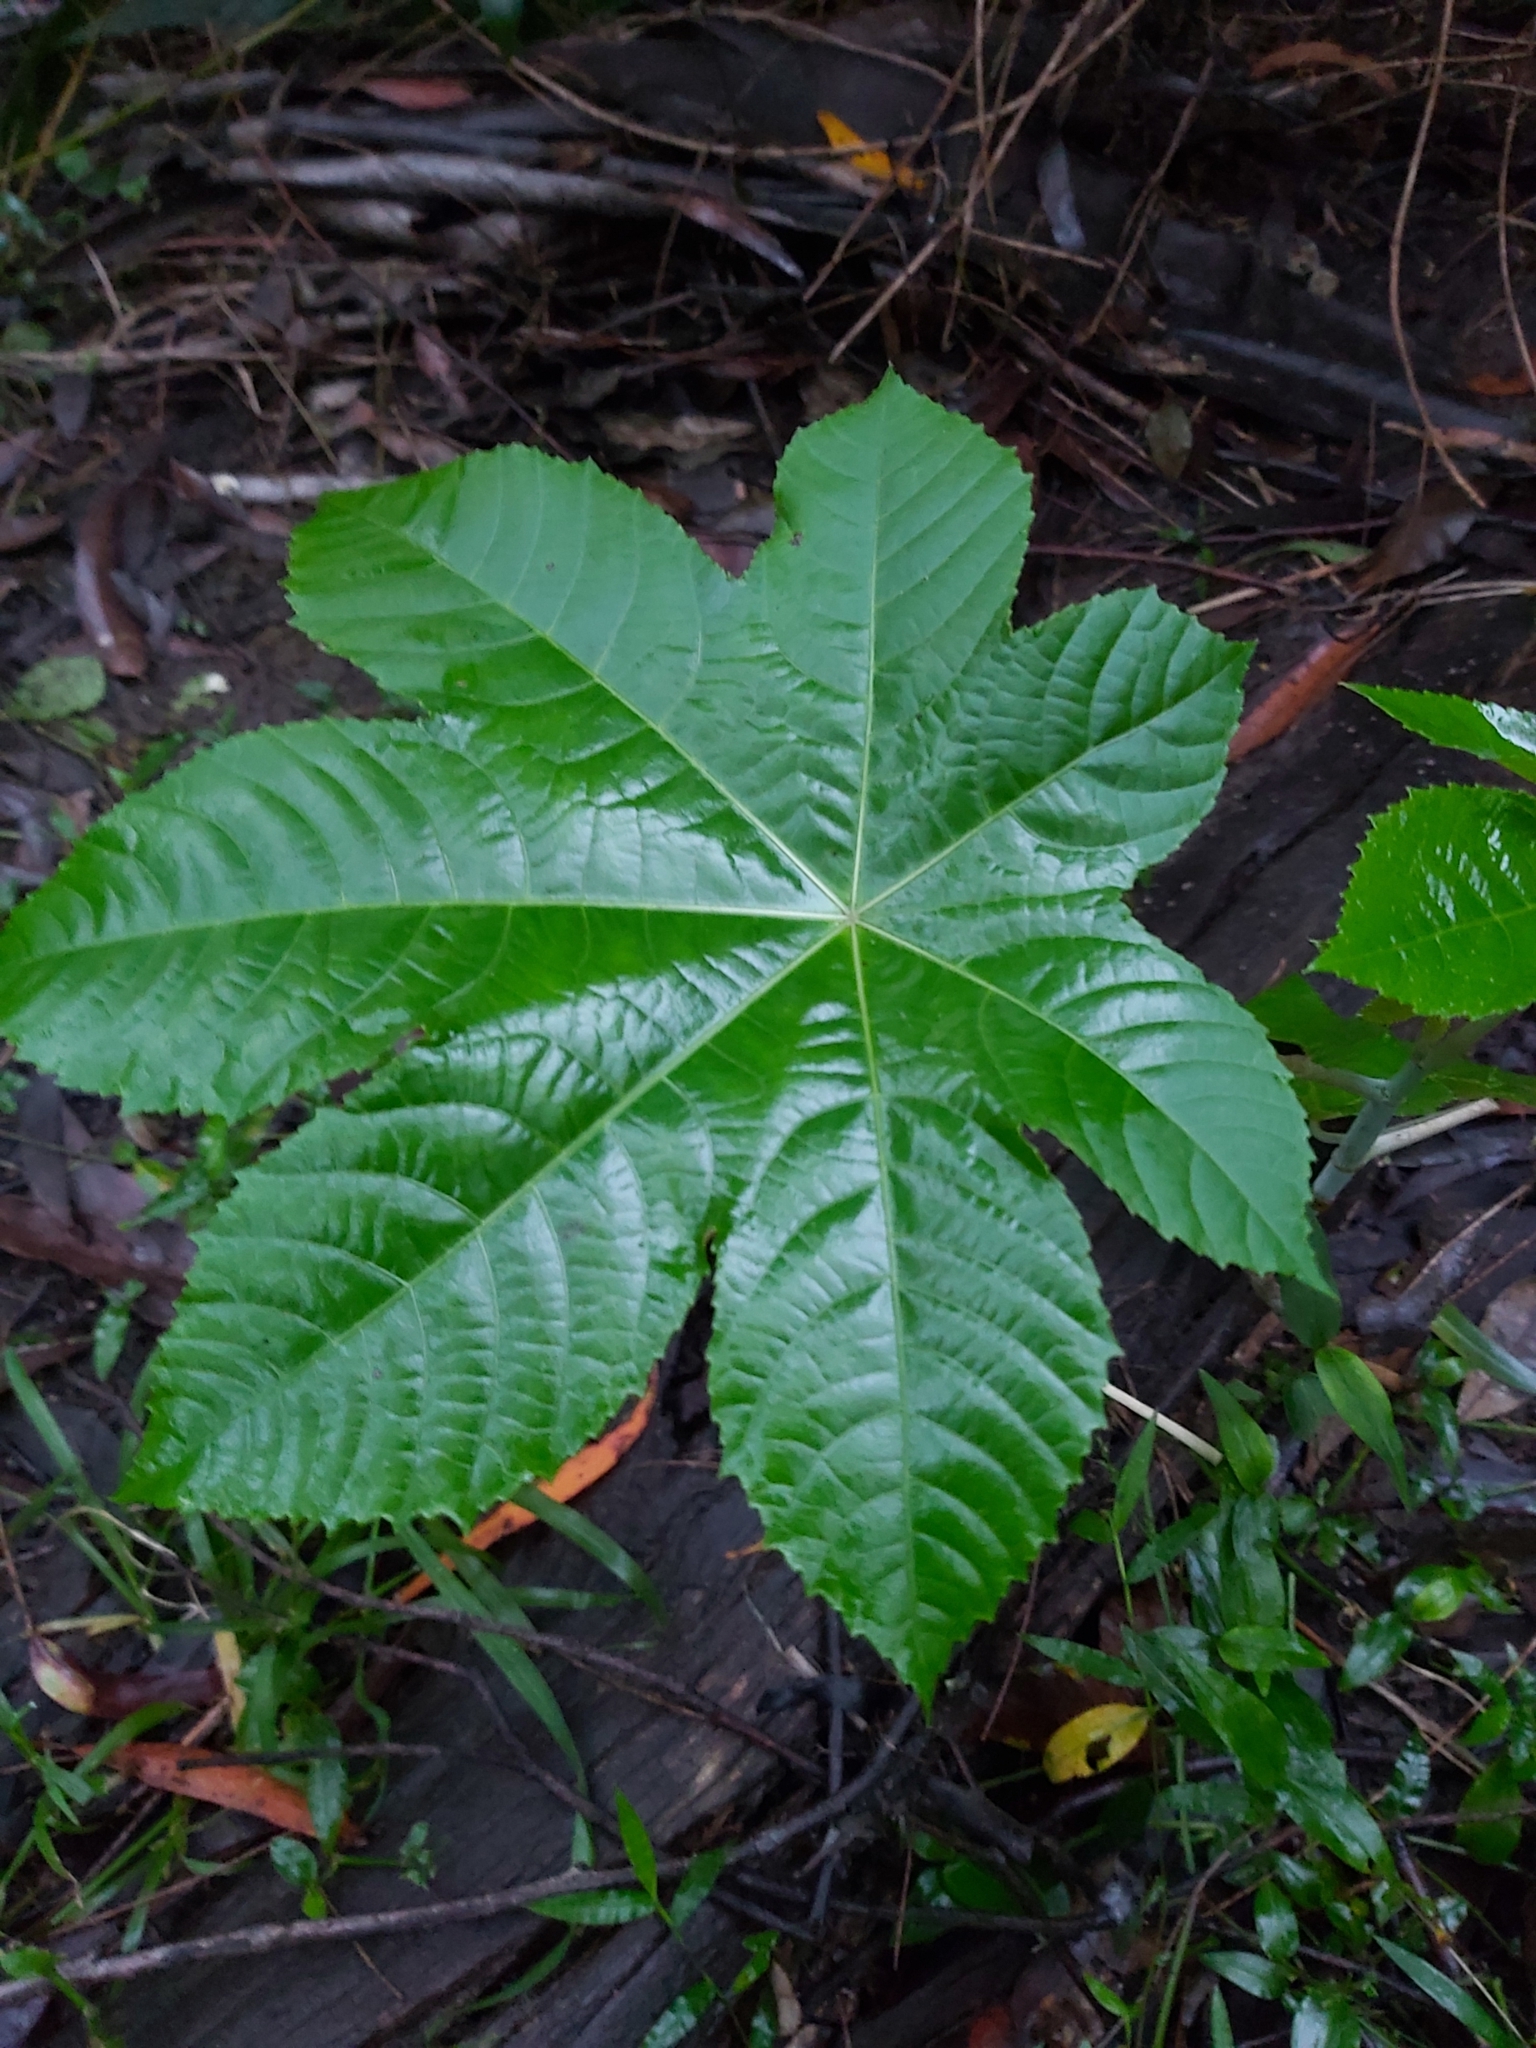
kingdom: Plantae
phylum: Tracheophyta
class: Magnoliopsida
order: Malpighiales
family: Euphorbiaceae
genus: Ricinus
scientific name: Ricinus communis
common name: Castor-oil-plant
